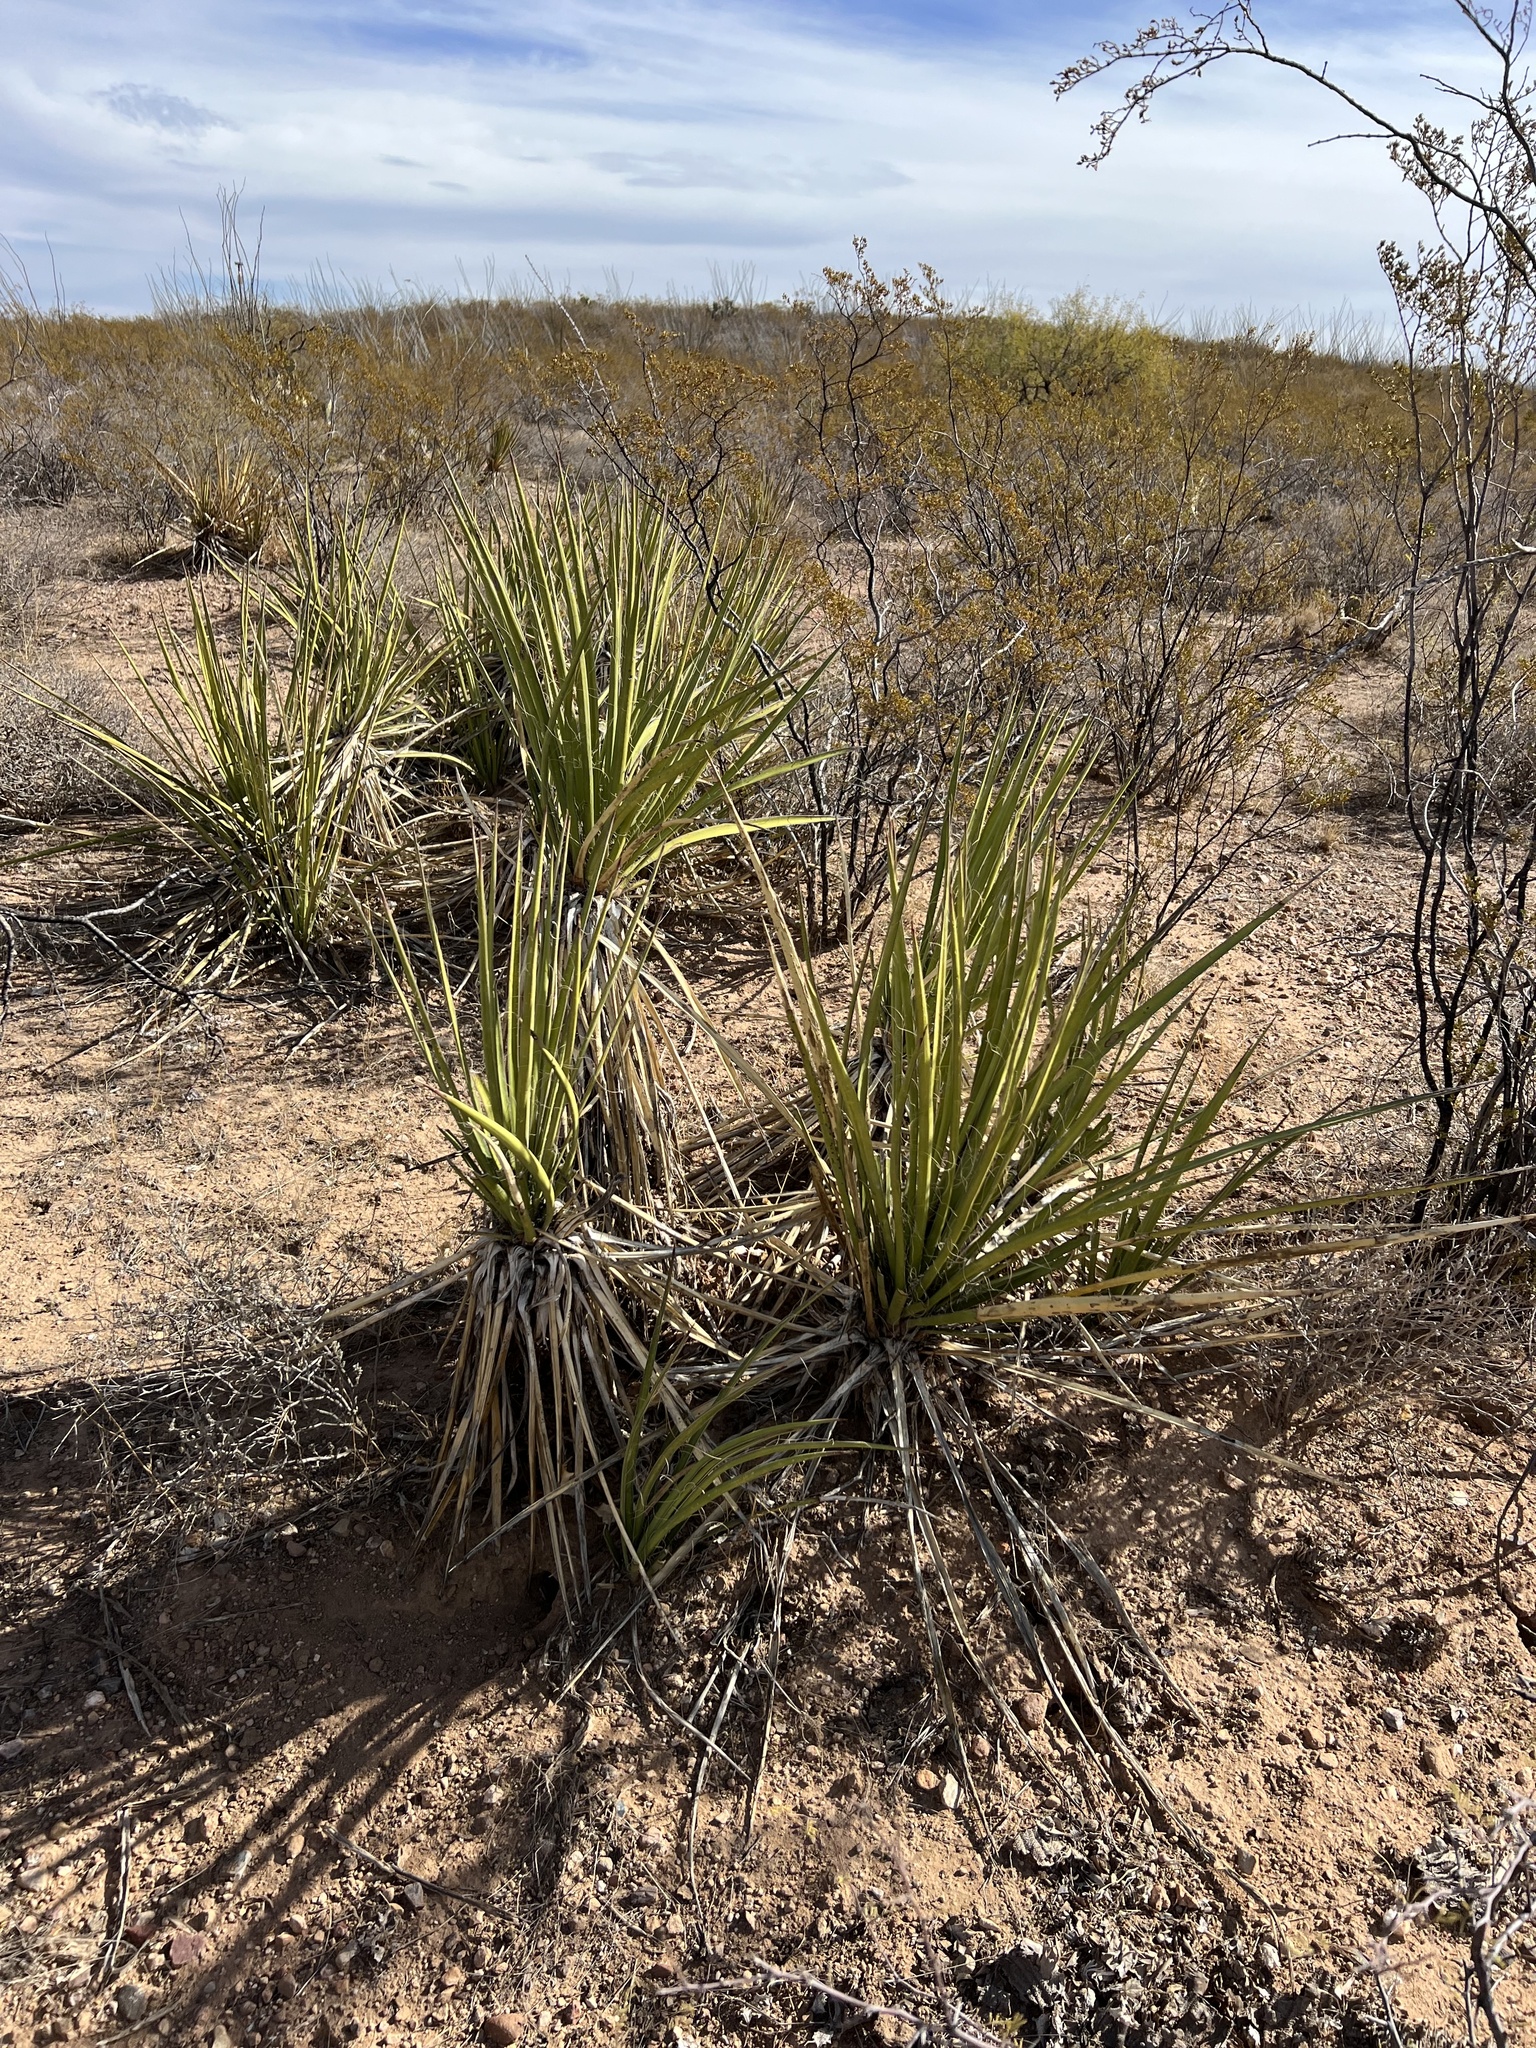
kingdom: Plantae
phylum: Tracheophyta
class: Liliopsida
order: Asparagales
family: Asparagaceae
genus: Yucca
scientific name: Yucca baccata
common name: Banana yucca
